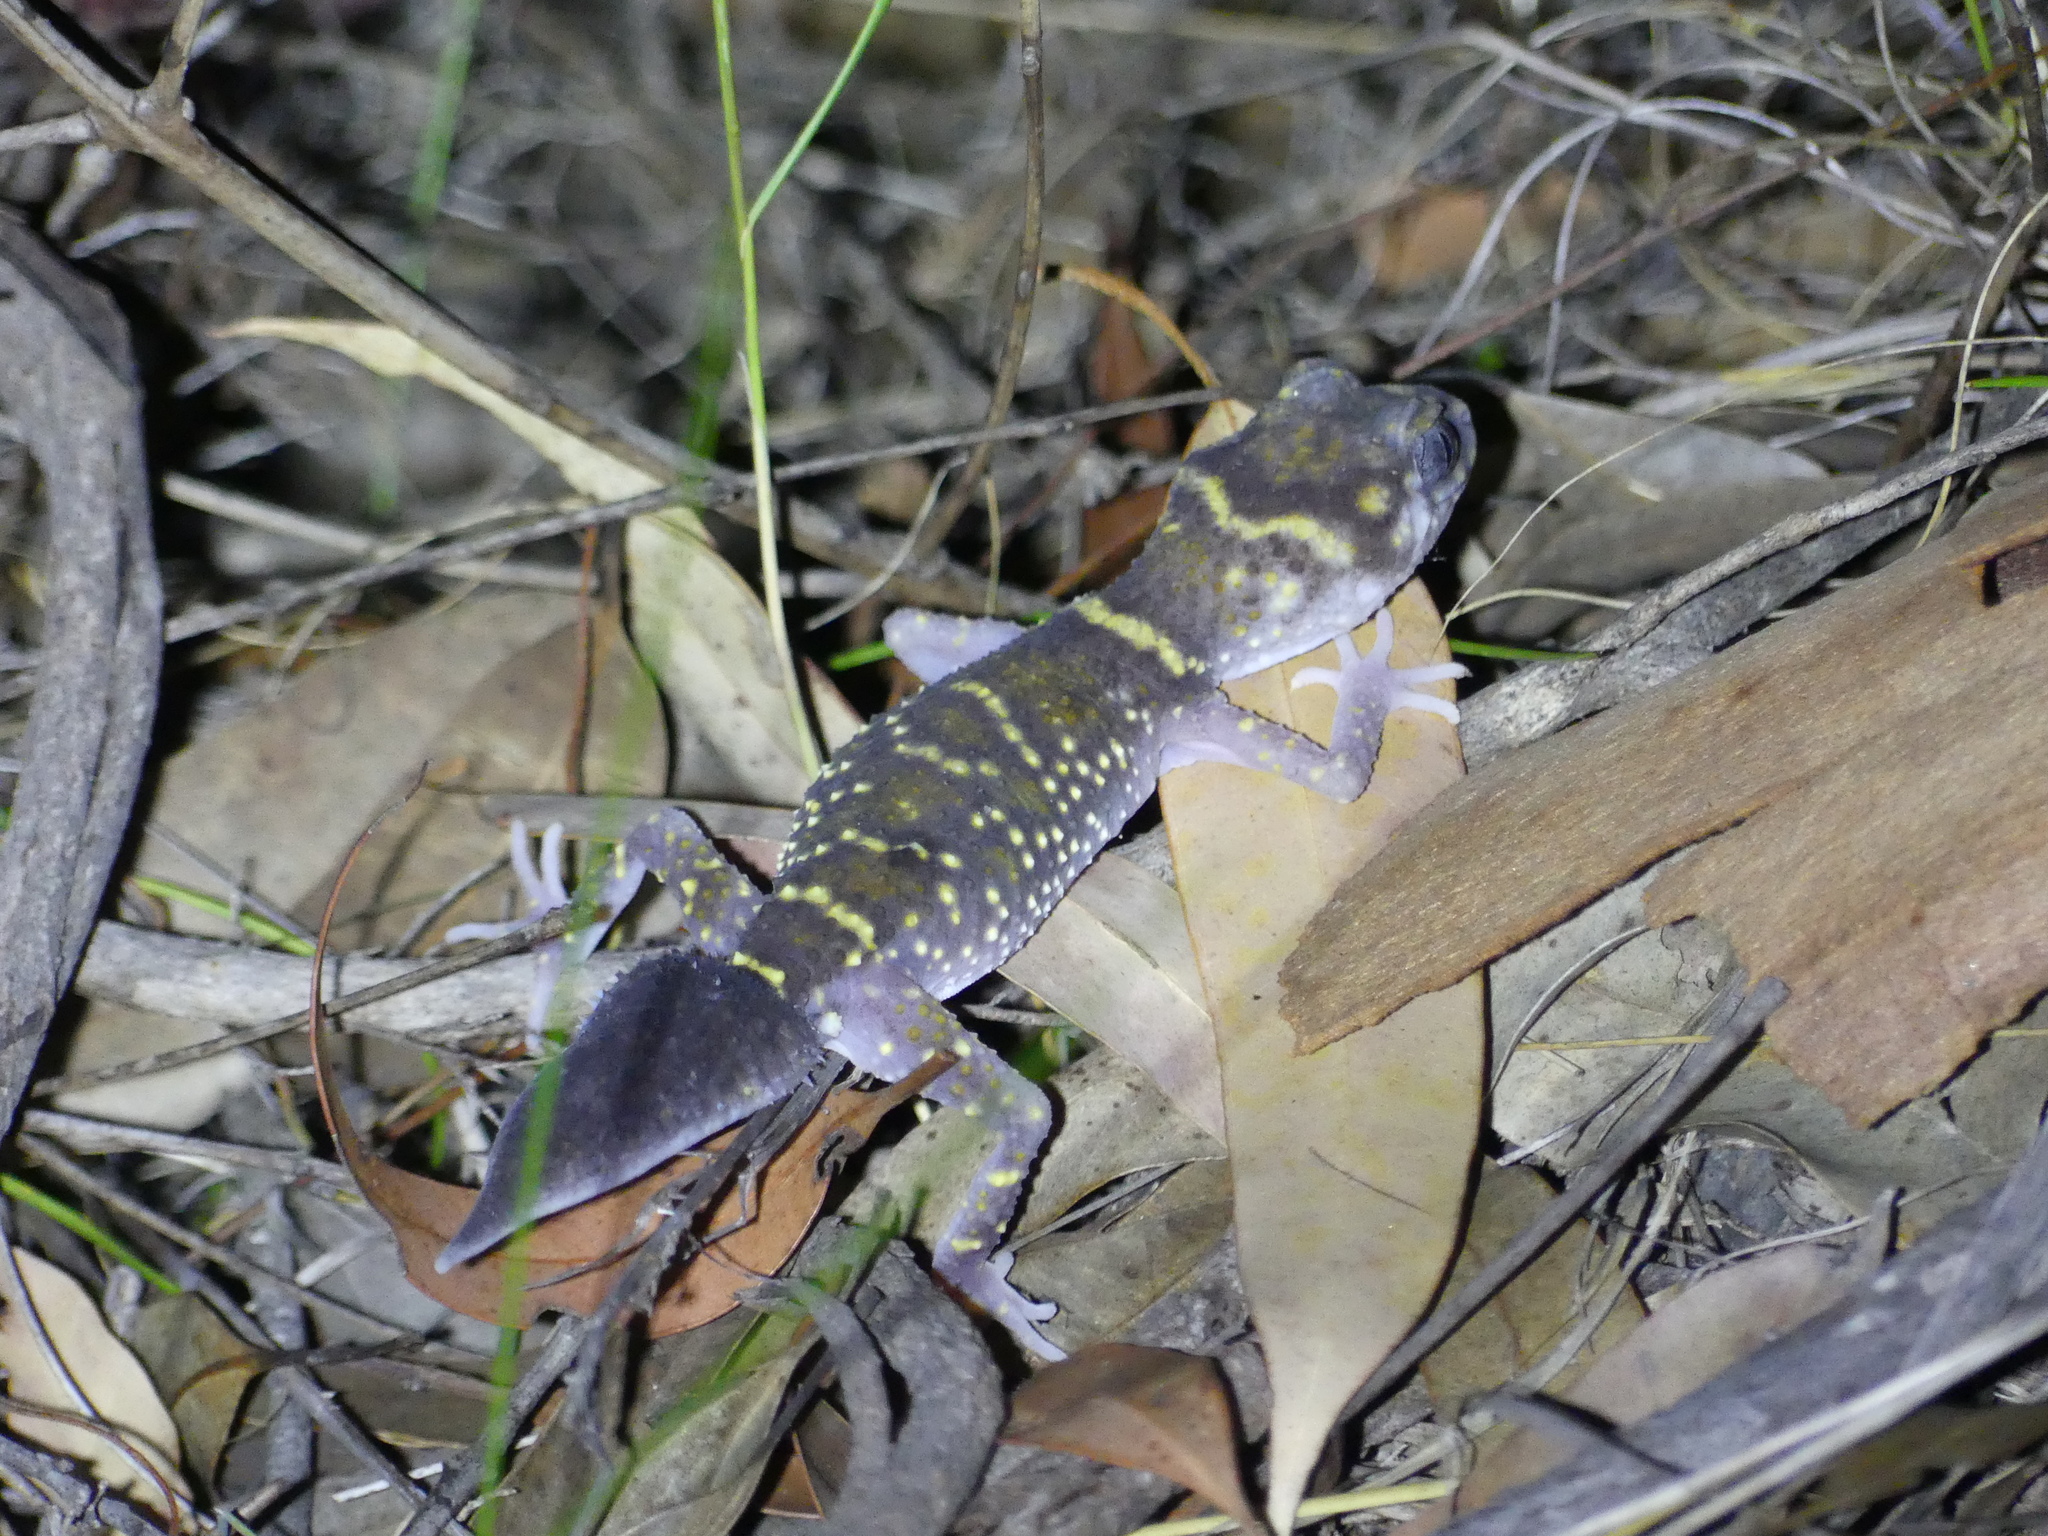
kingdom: Animalia
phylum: Chordata
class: Squamata
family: Carphodactylidae
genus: Underwoodisaurus
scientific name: Underwoodisaurus milii
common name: Barking gecko
